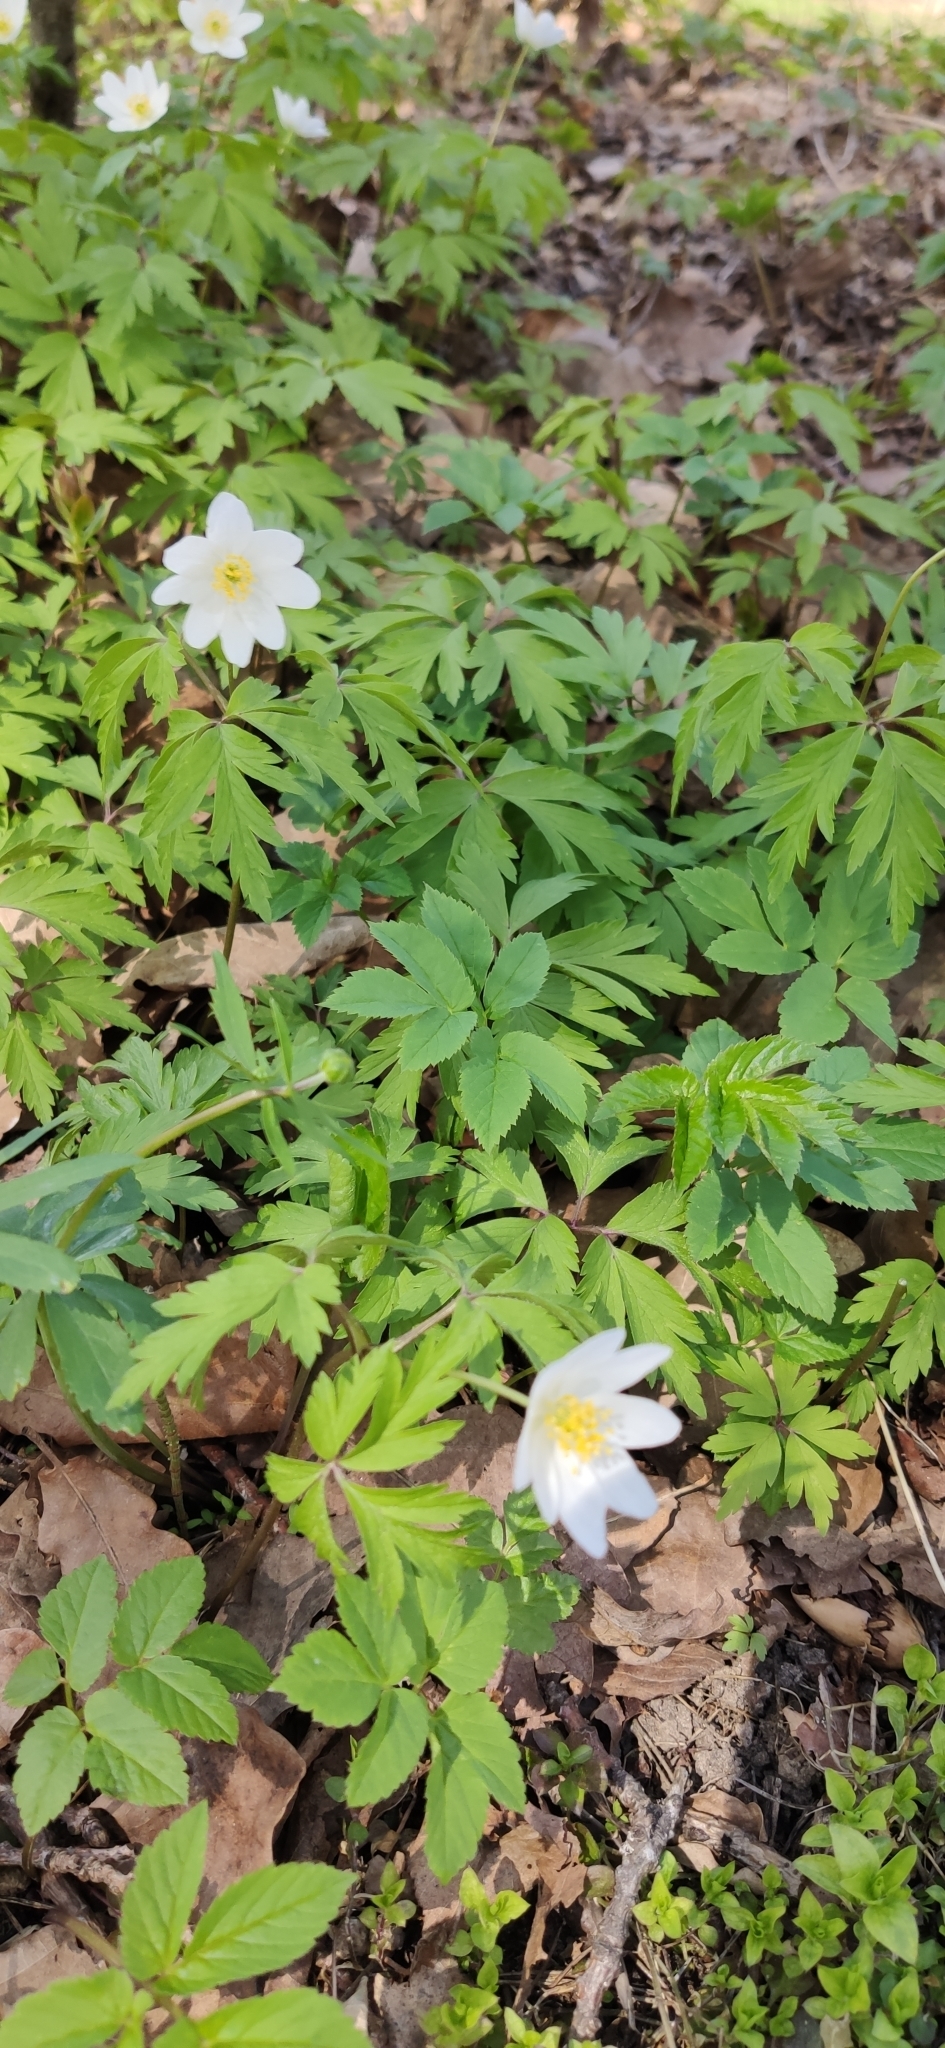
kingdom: Plantae
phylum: Tracheophyta
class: Magnoliopsida
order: Ranunculales
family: Ranunculaceae
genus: Anemone
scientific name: Anemone nemorosa
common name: Wood anemone
